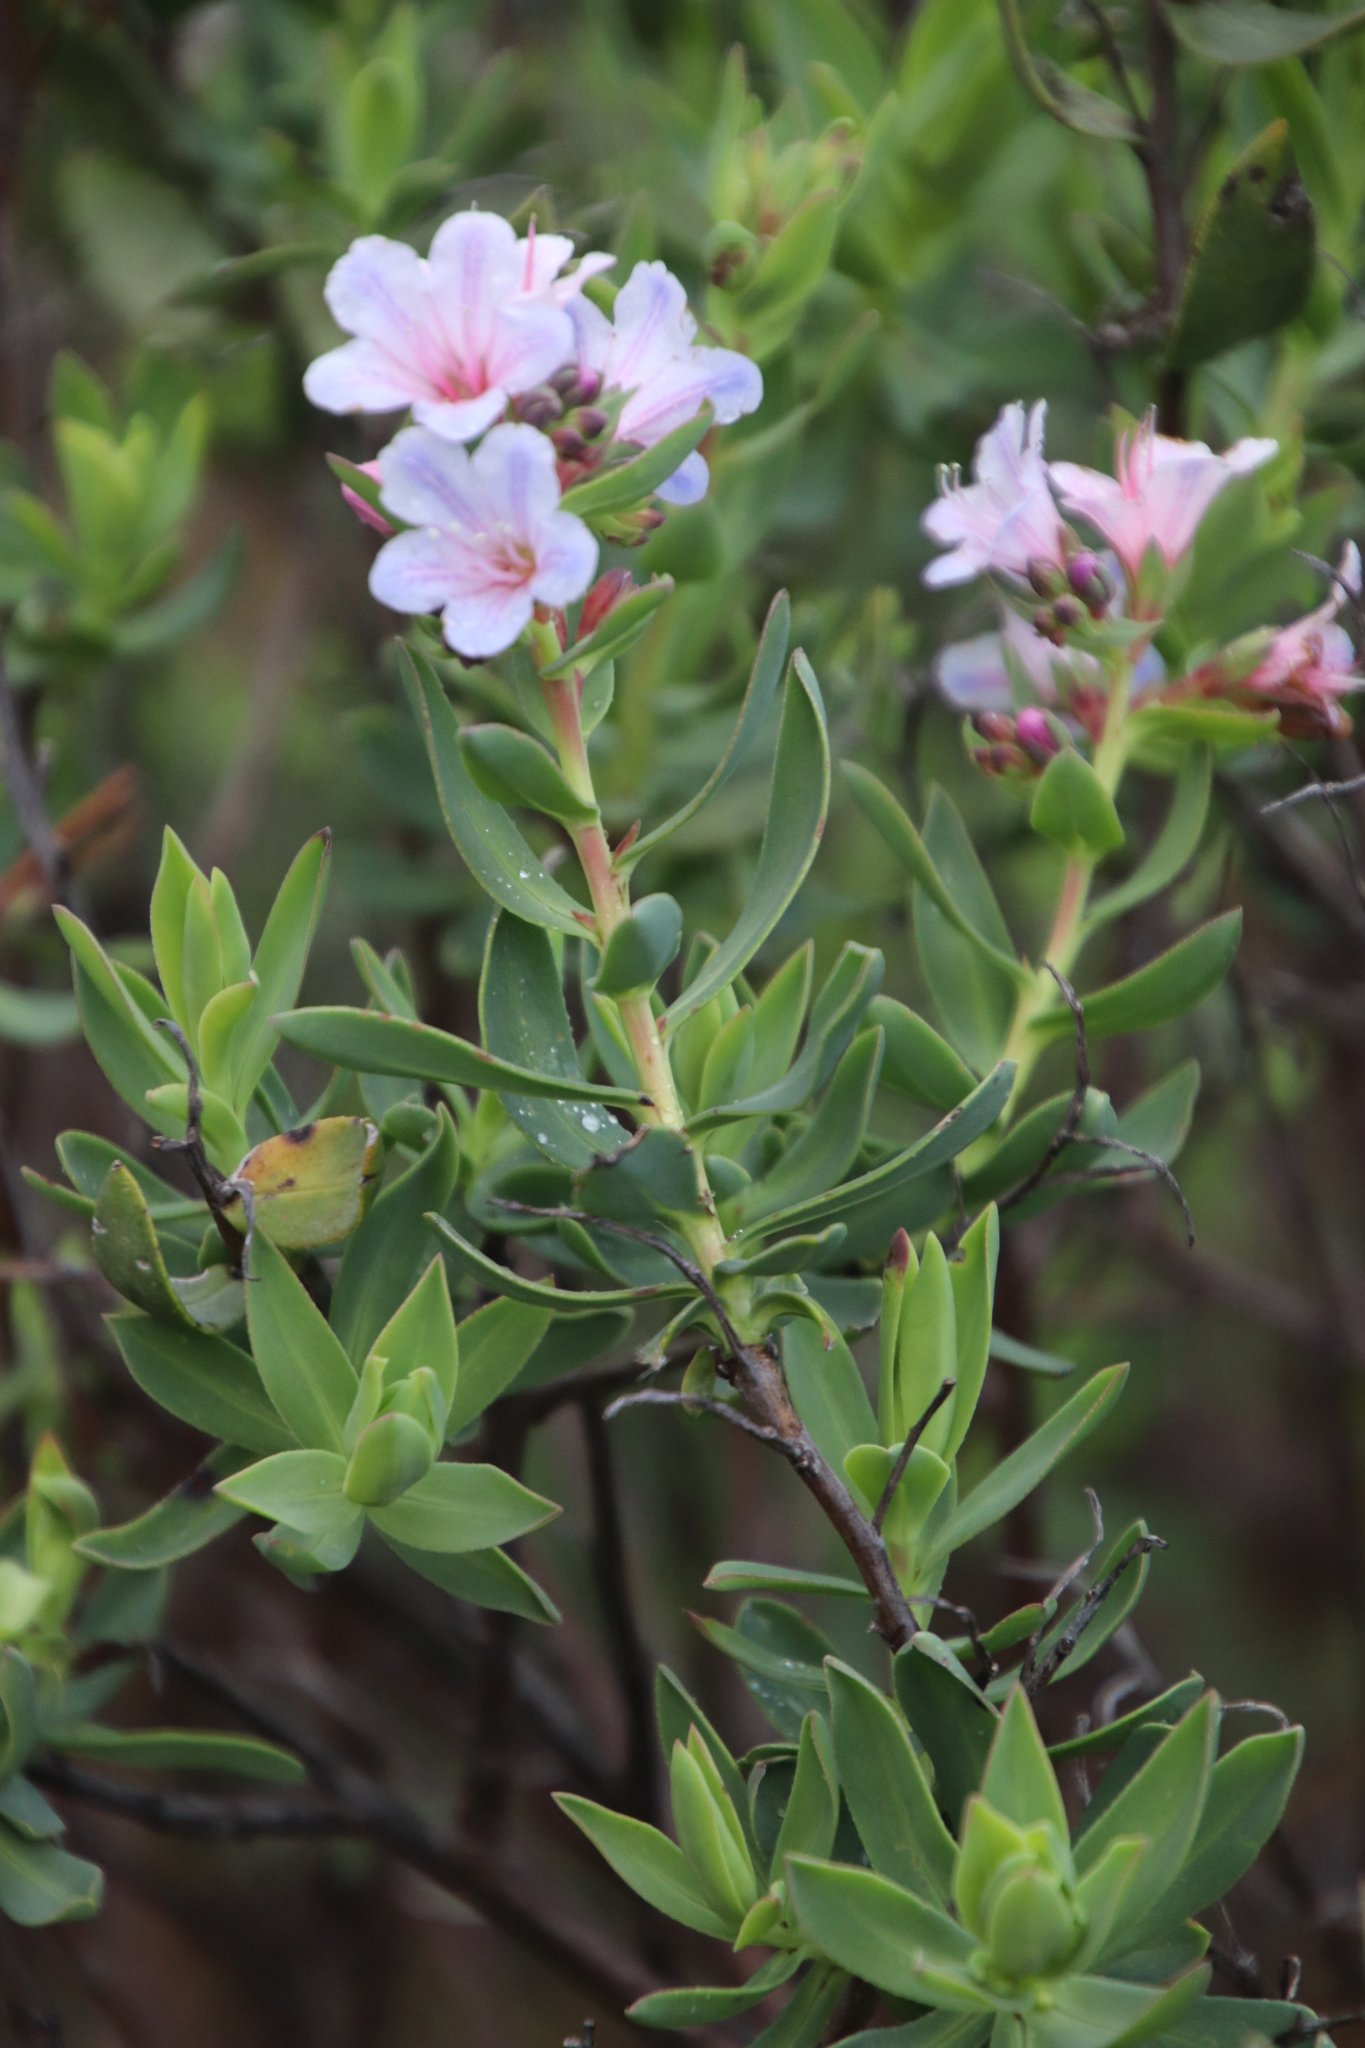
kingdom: Plantae
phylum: Tracheophyta
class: Magnoliopsida
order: Boraginales
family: Boraginaceae
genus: Lobostemon
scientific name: Lobostemon glaucophyllus
